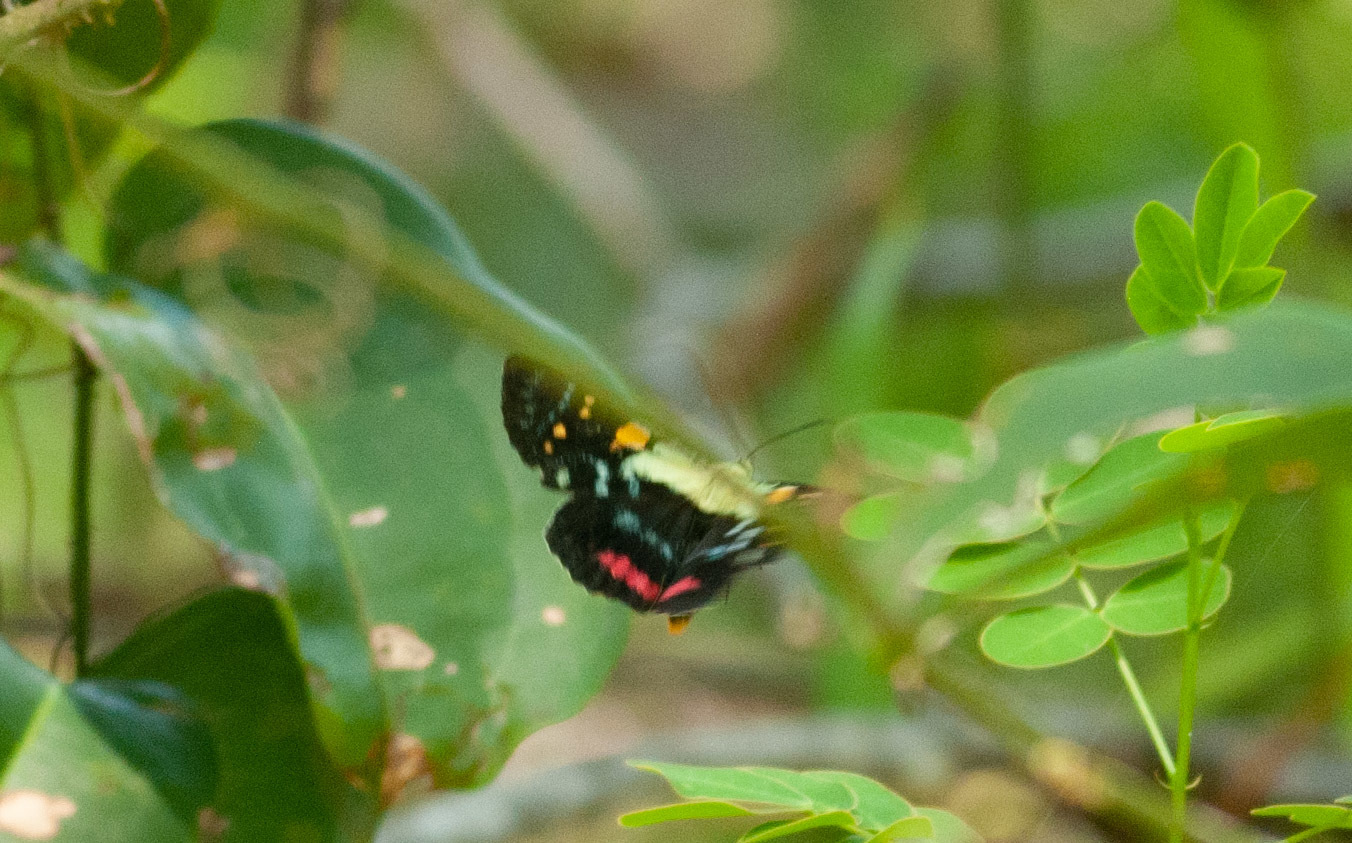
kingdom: Animalia
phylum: Arthropoda
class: Insecta
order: Lepidoptera
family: Noctuidae
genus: Agarista
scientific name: Agarista agricola
